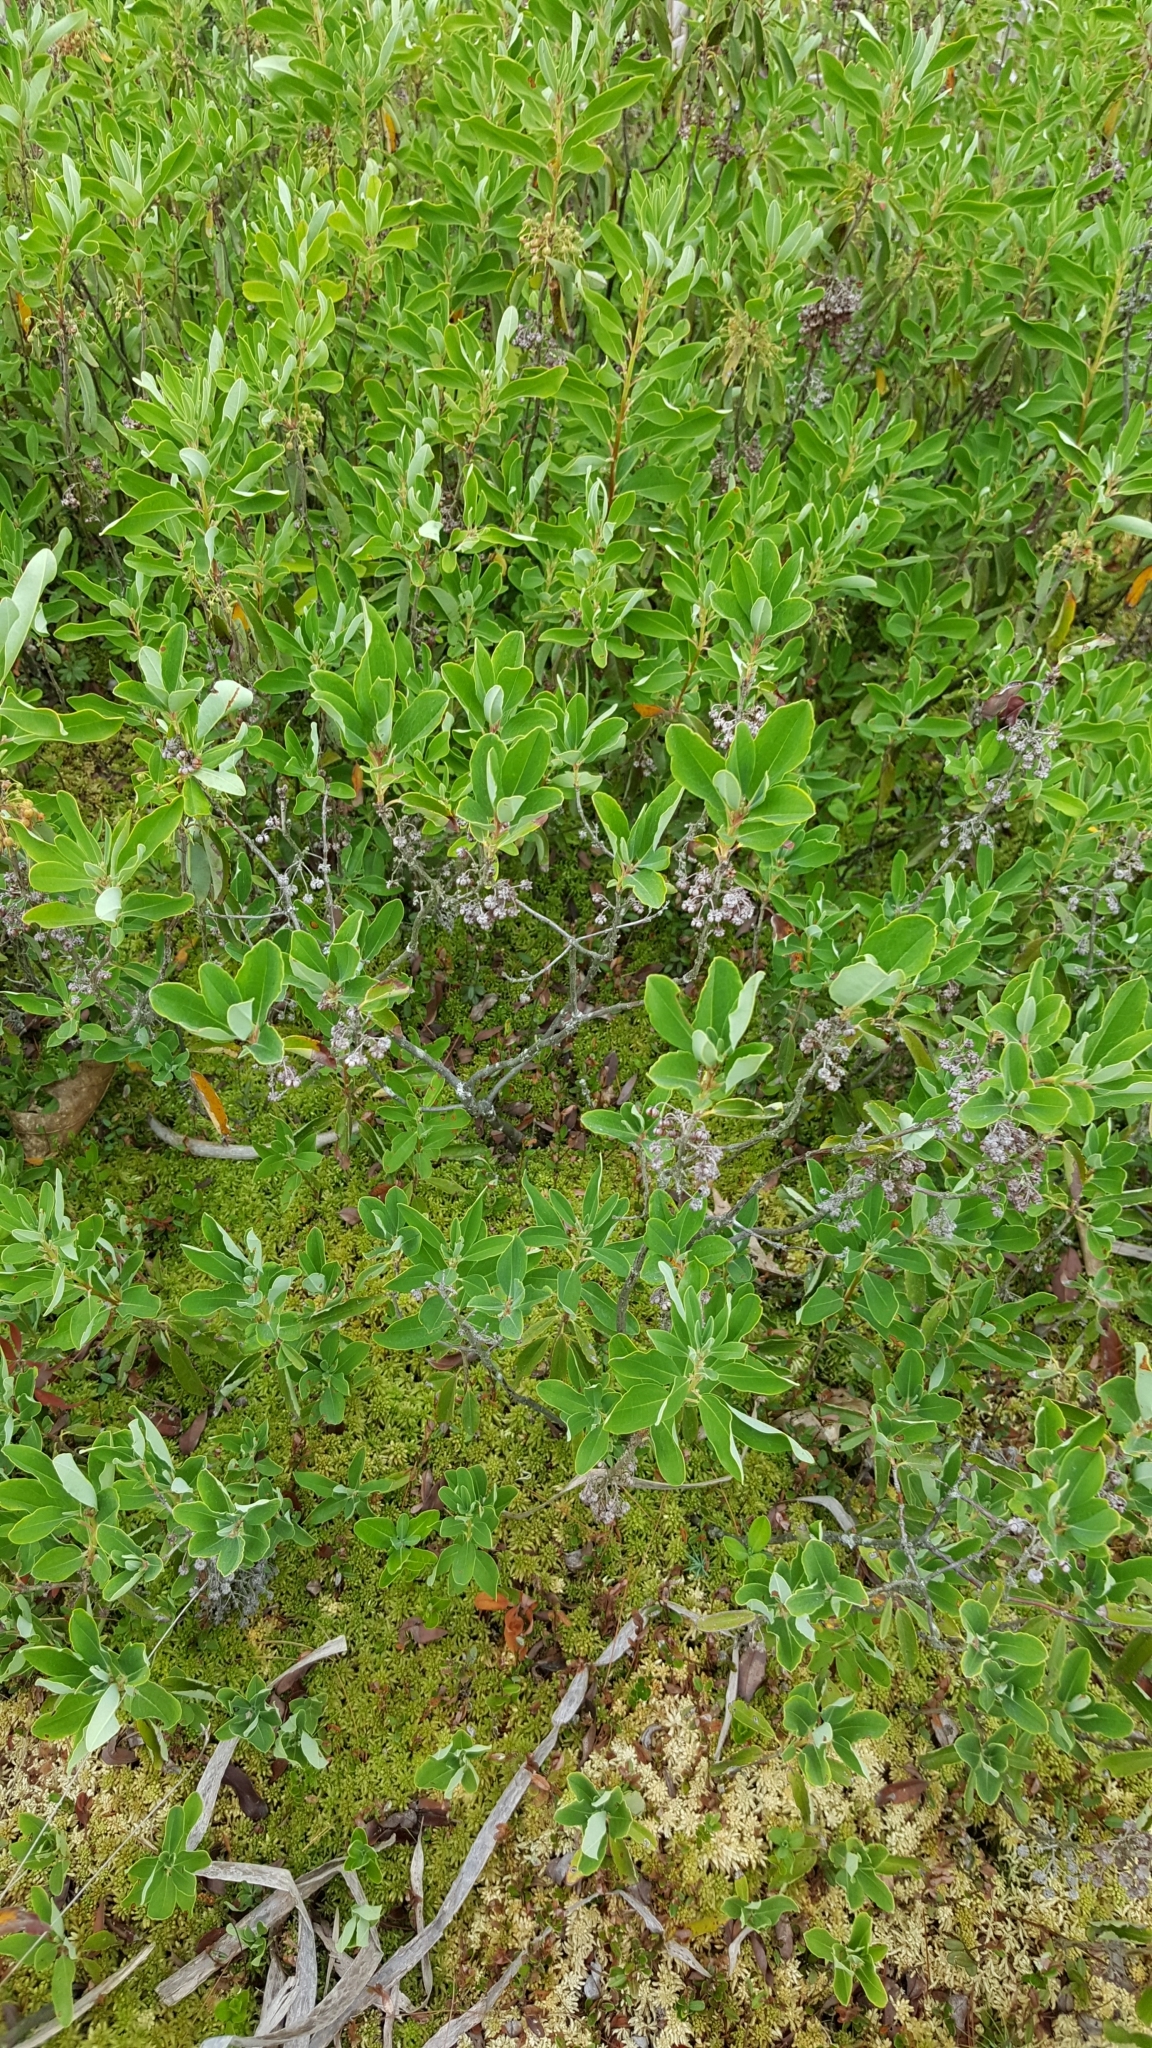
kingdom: Plantae
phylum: Tracheophyta
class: Magnoliopsida
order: Ericales
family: Ericaceae
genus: Kalmia
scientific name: Kalmia angustifolia
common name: Sheep-laurel
